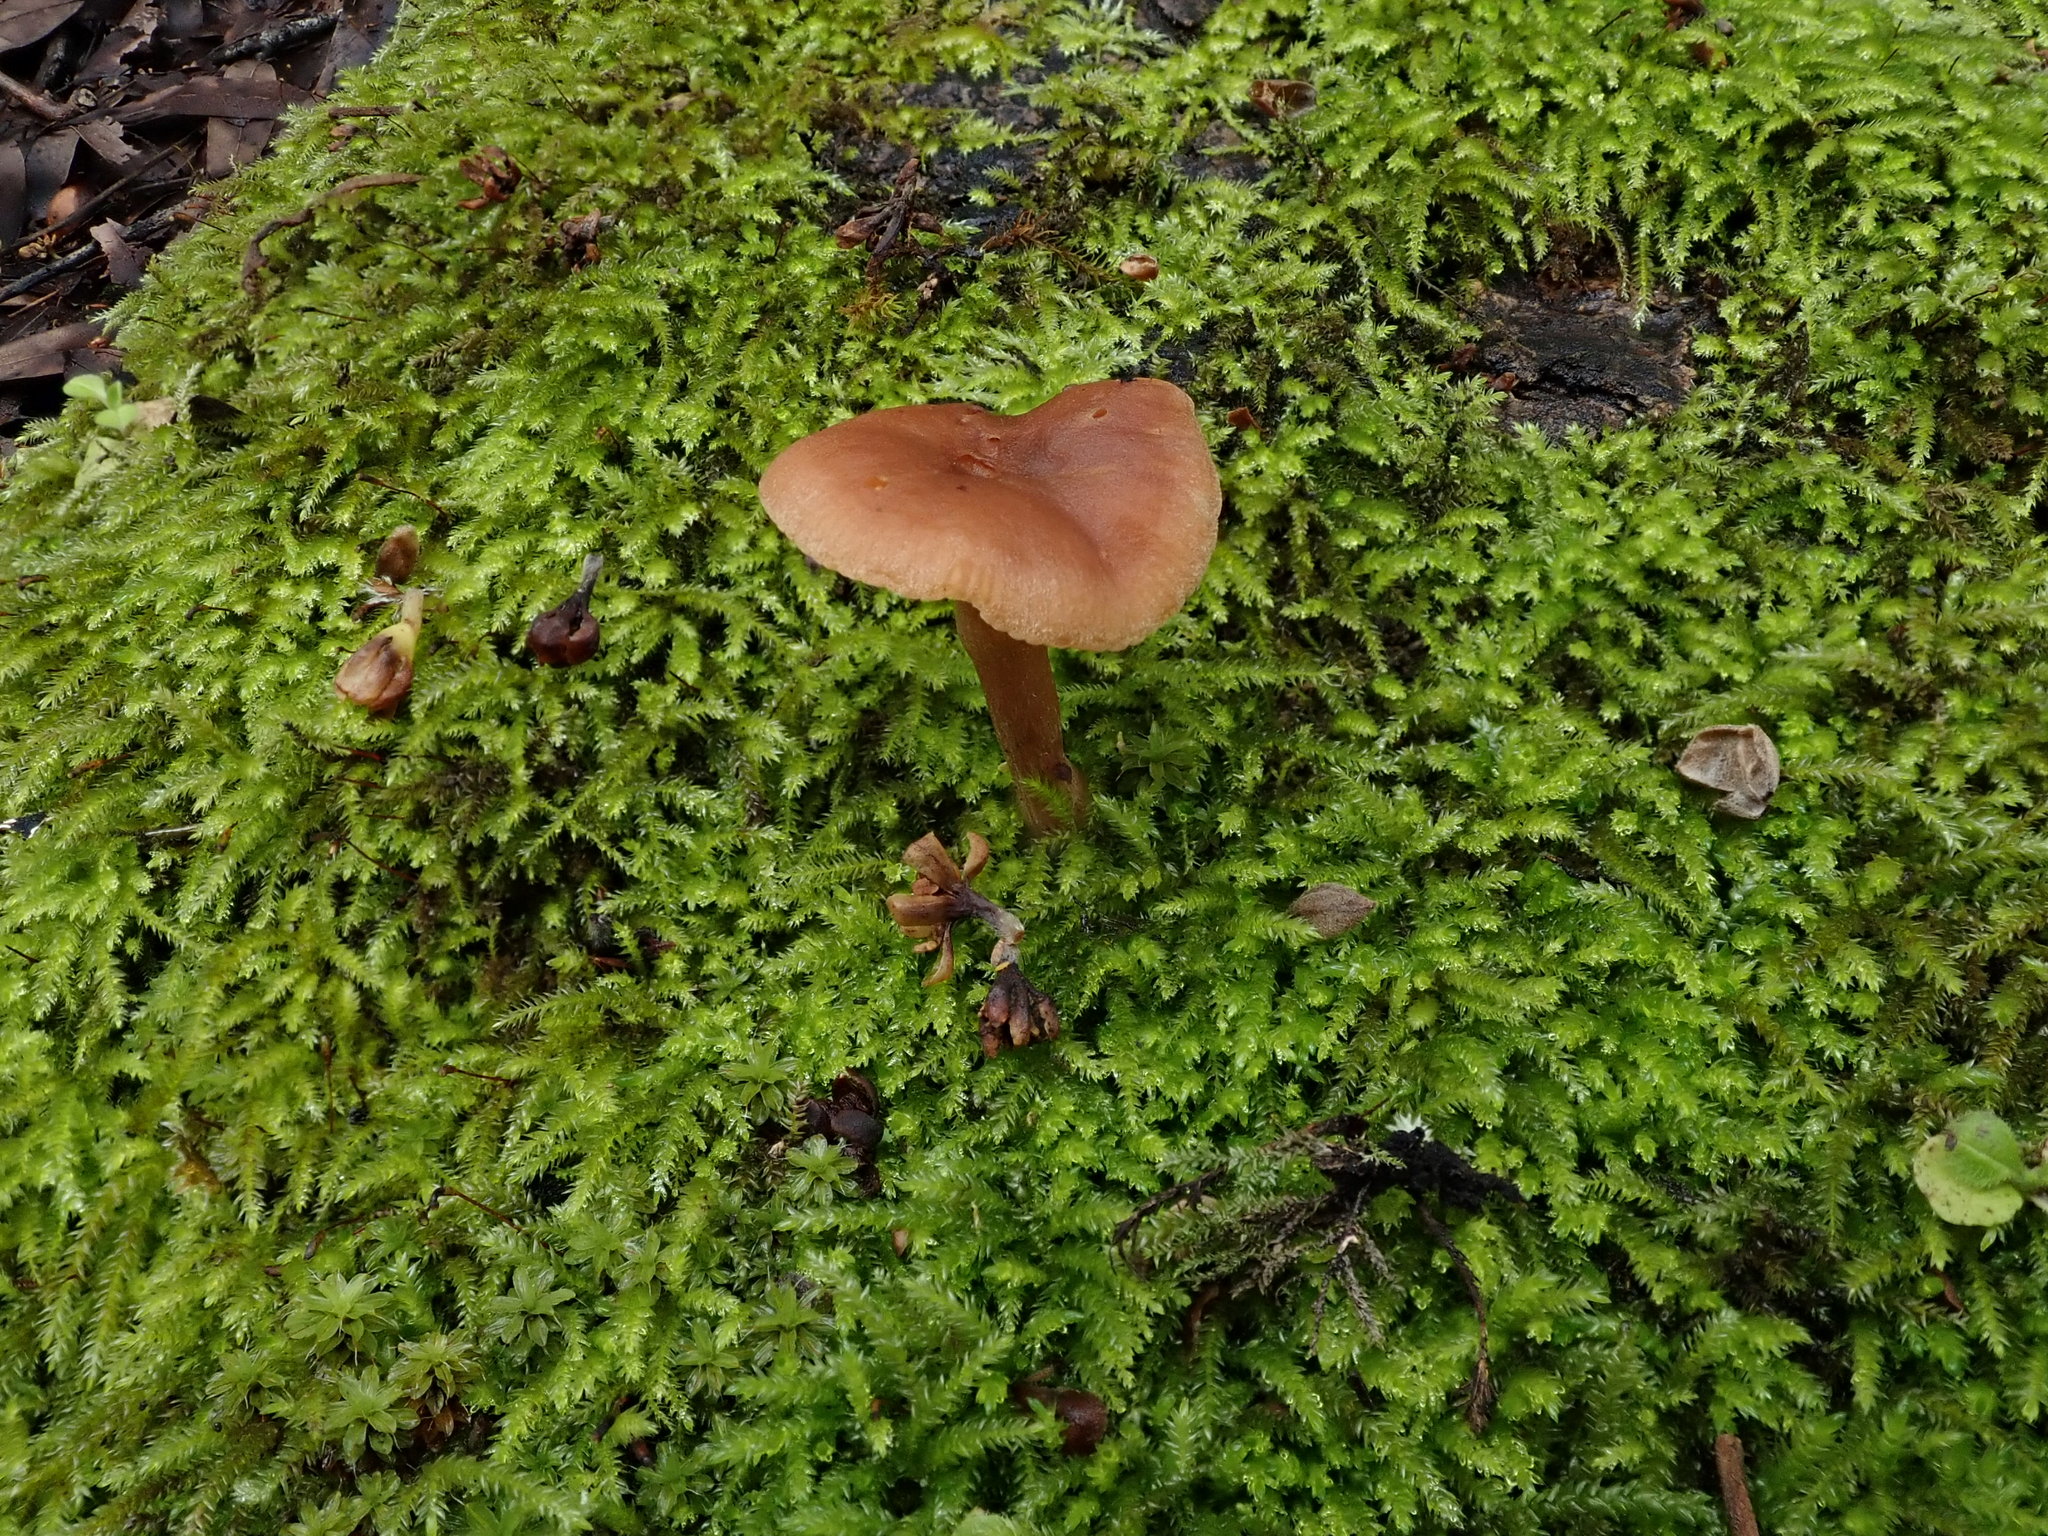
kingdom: Fungi
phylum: Basidiomycota
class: Agaricomycetes
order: Agaricales
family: Tubariaceae
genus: Tubaria
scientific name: Tubaria furfuracea
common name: Scurfy twiglet
